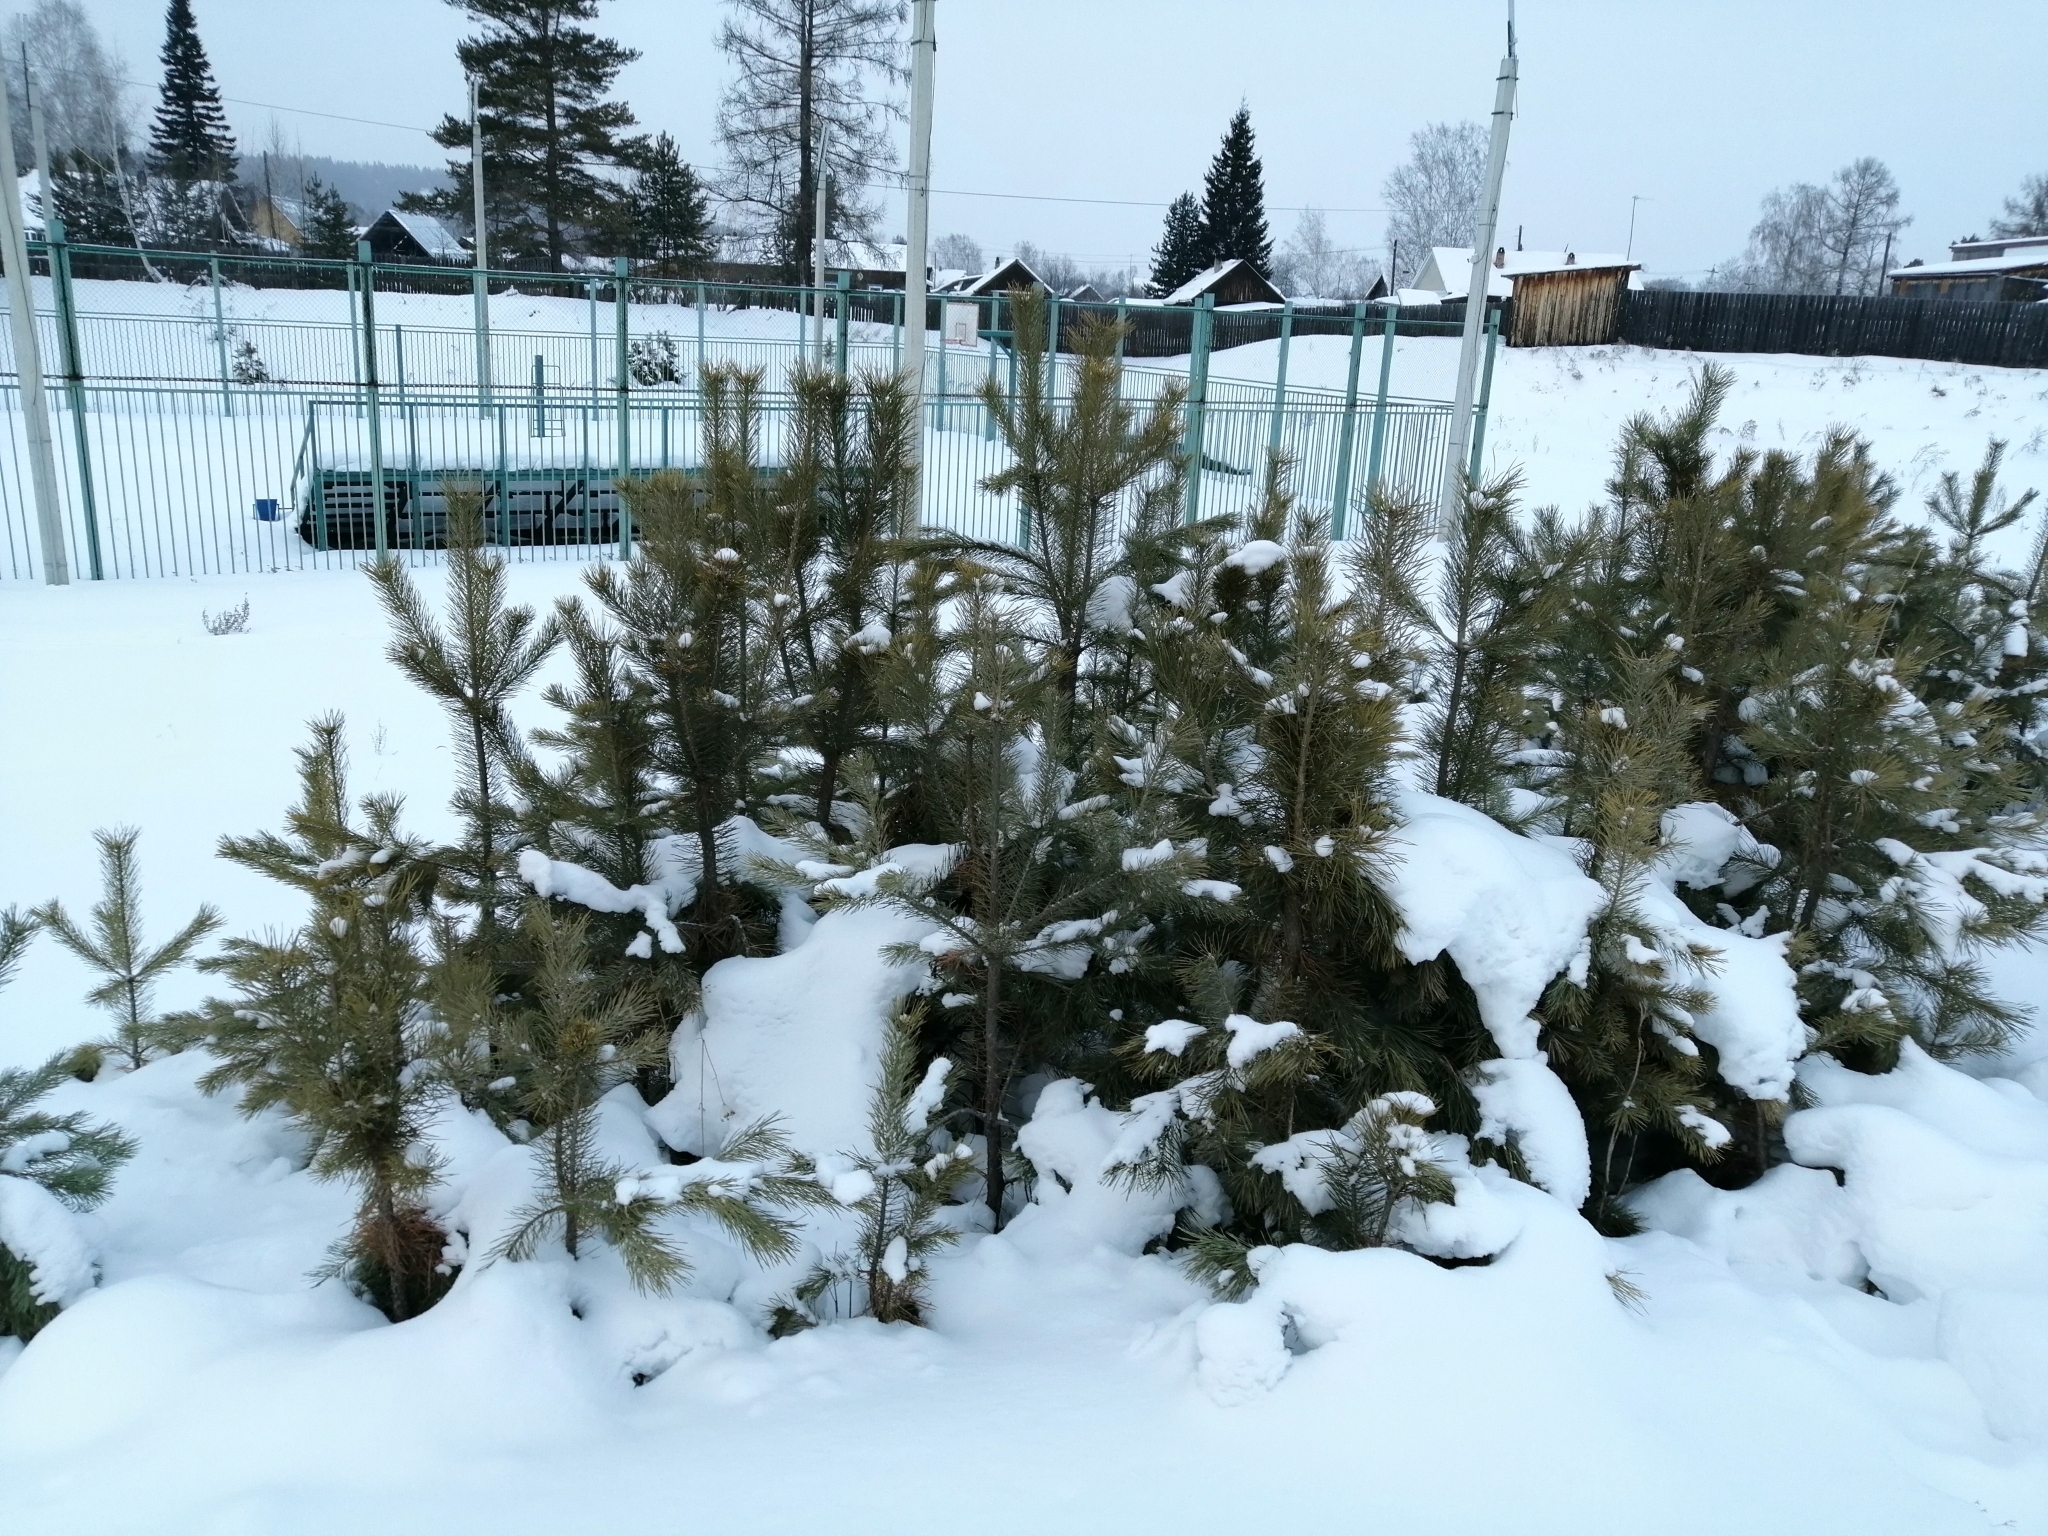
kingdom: Plantae
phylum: Tracheophyta
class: Pinopsida
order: Pinales
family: Pinaceae
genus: Pinus
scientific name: Pinus sylvestris
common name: Scots pine
